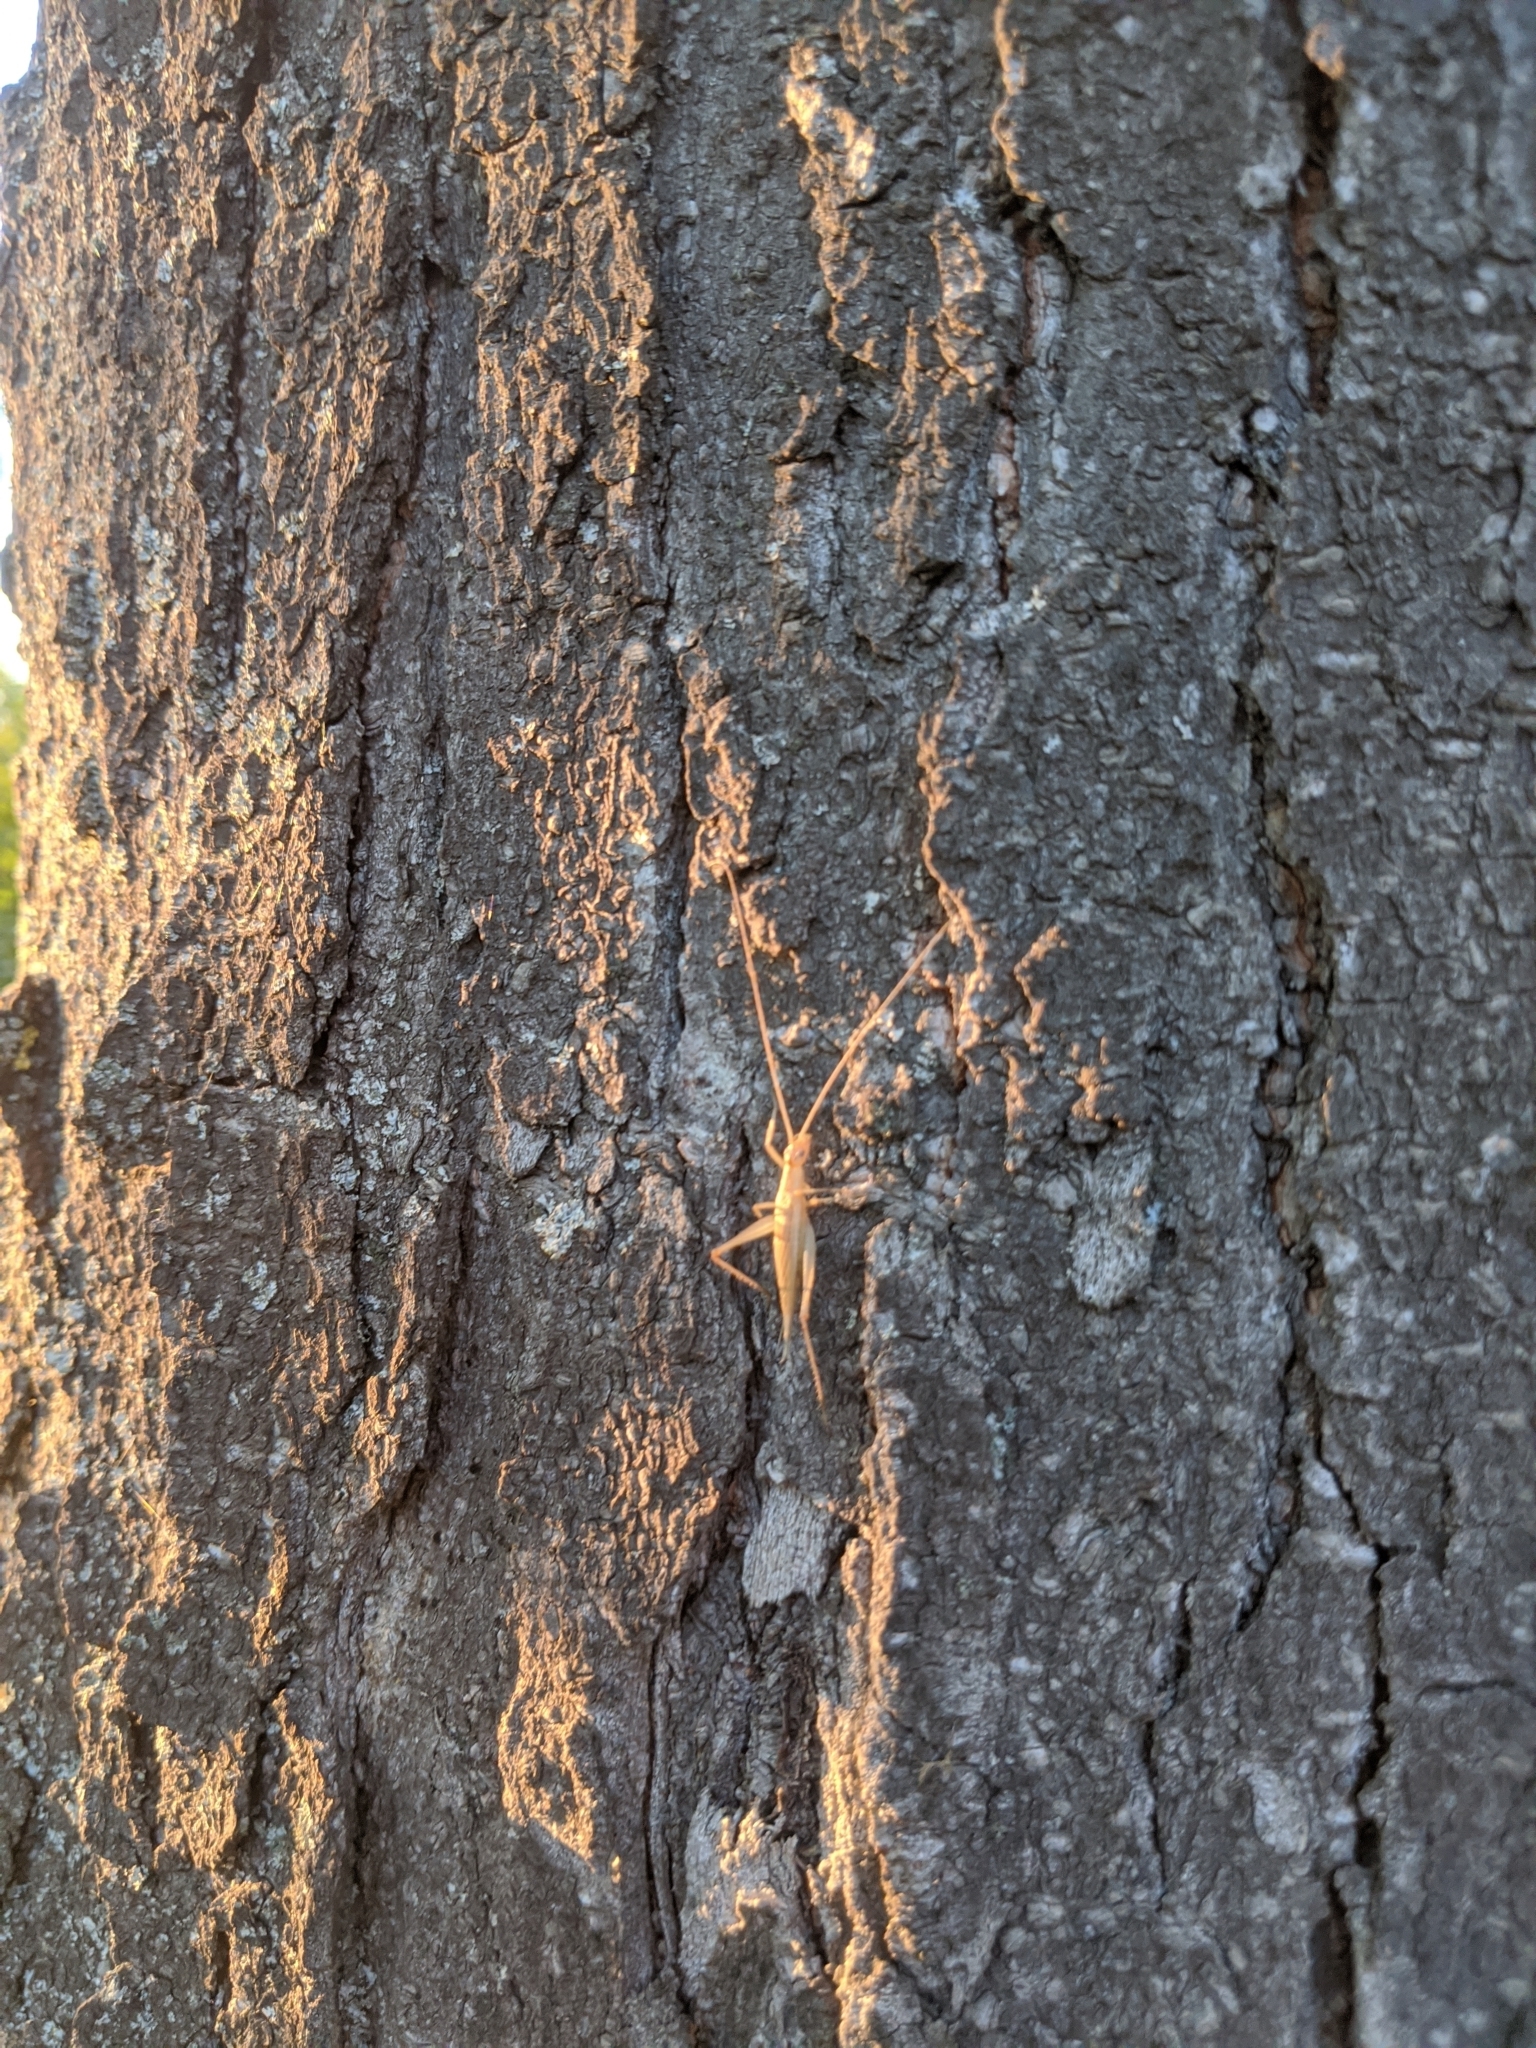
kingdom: Animalia
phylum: Arthropoda
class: Insecta
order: Orthoptera
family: Gryllidae
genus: Oecanthus
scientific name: Oecanthus pellucens
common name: Tree-cricket
